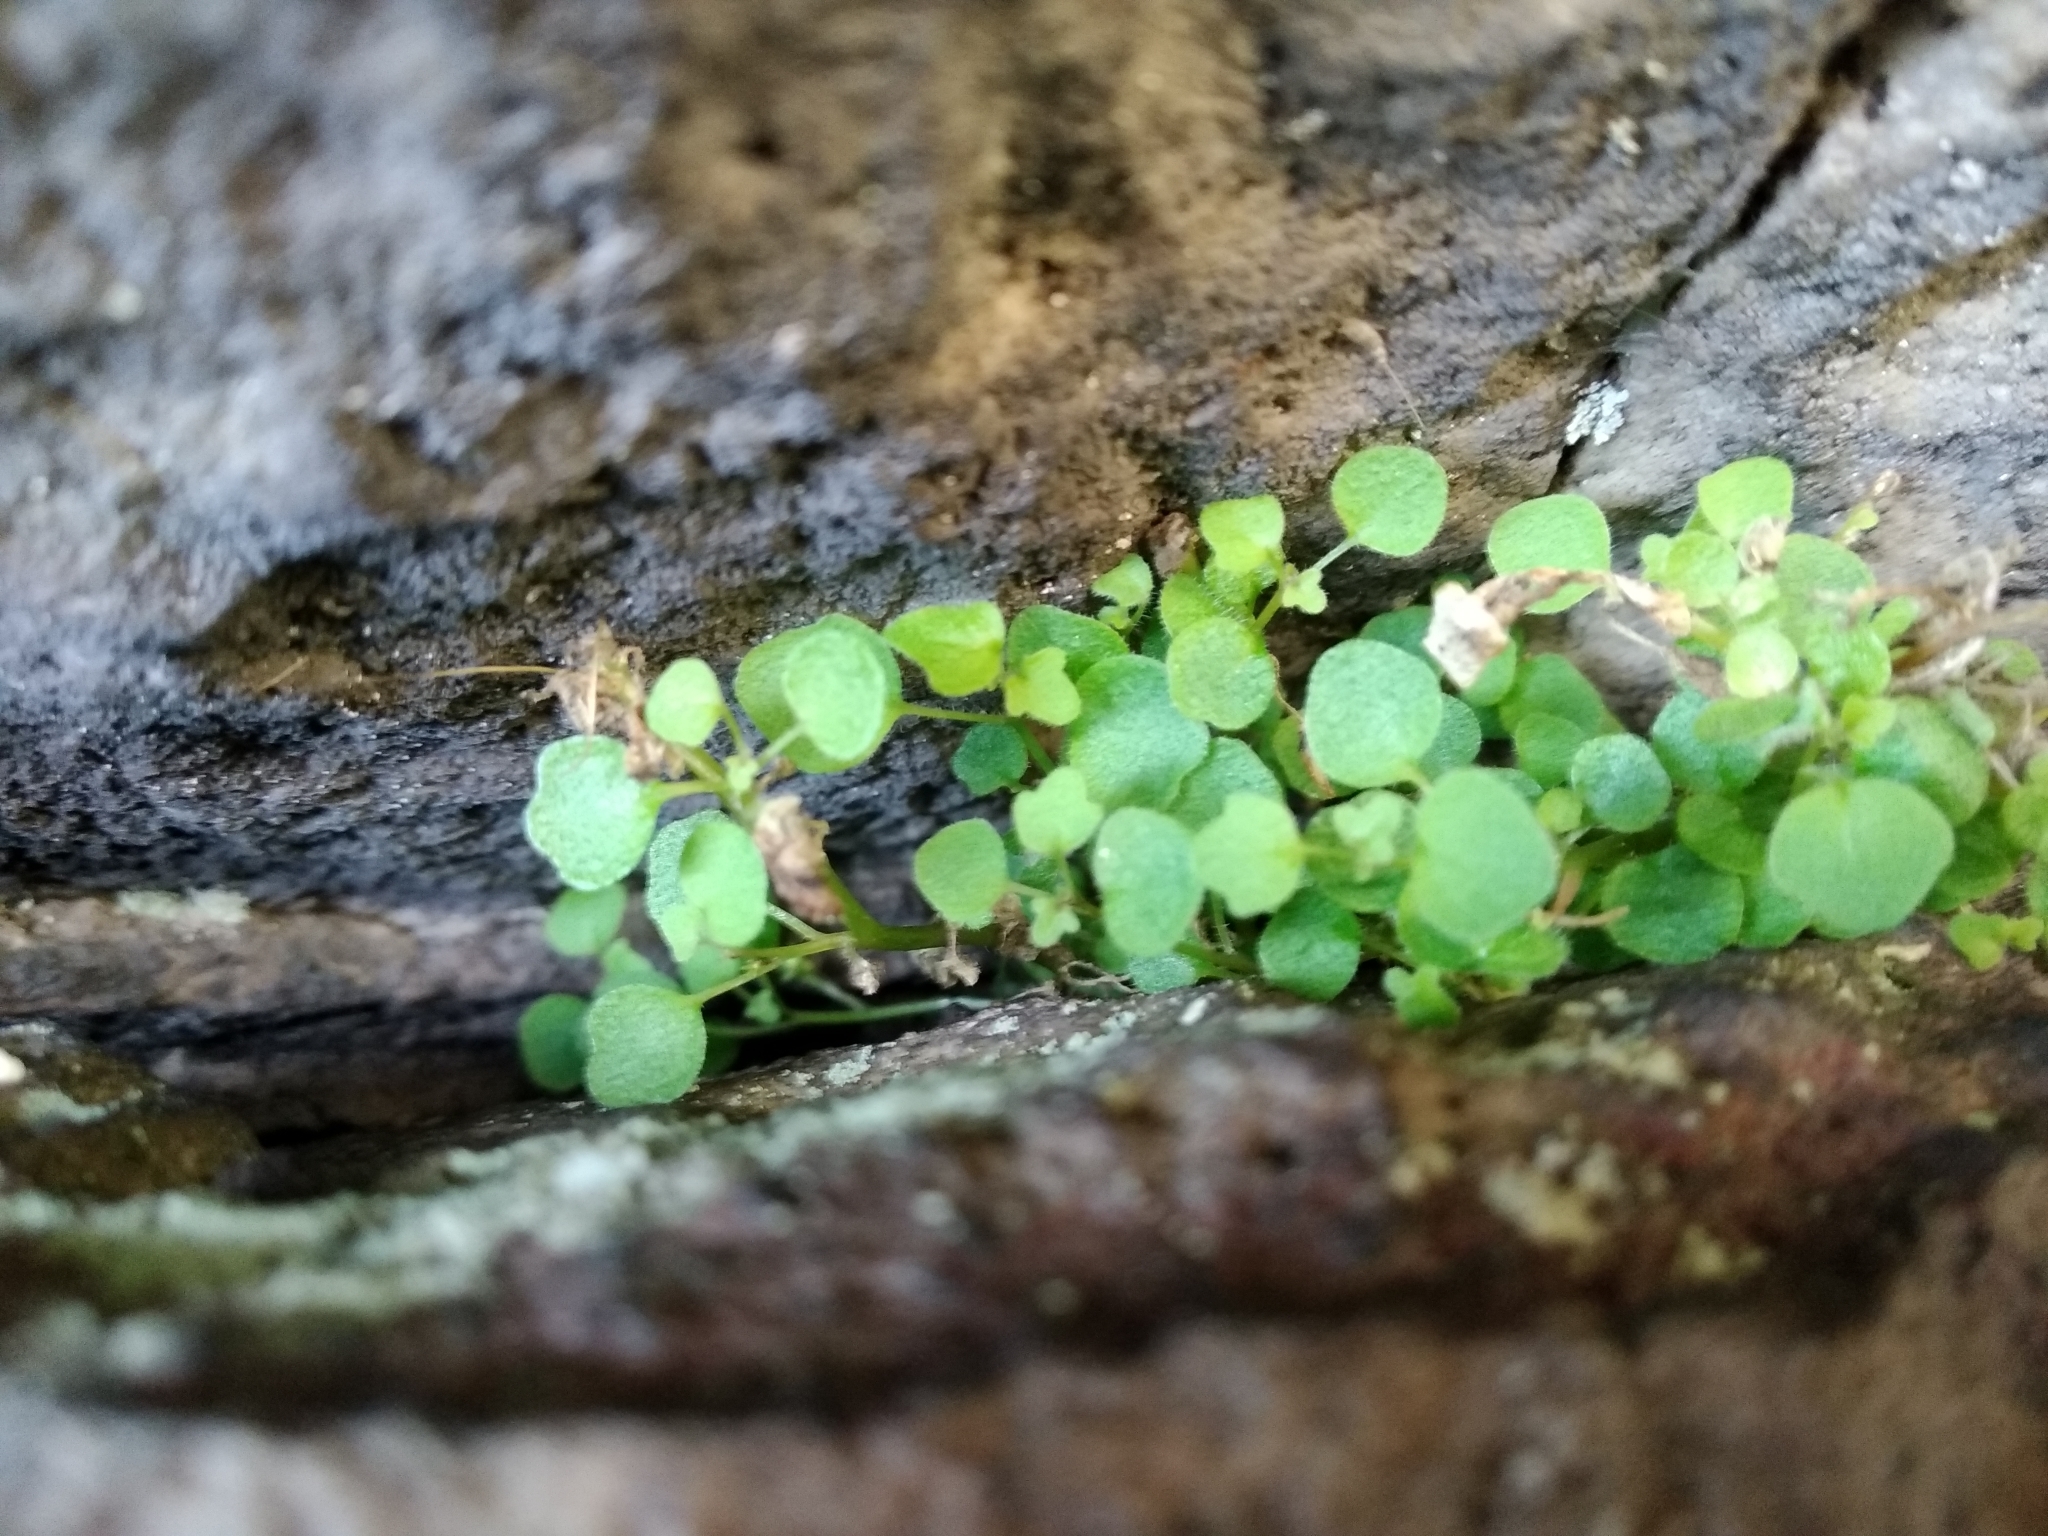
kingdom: Plantae
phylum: Tracheophyta
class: Magnoliopsida
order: Asterales
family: Campanulaceae
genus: Wimmerella
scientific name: Wimmerella pygmaea
